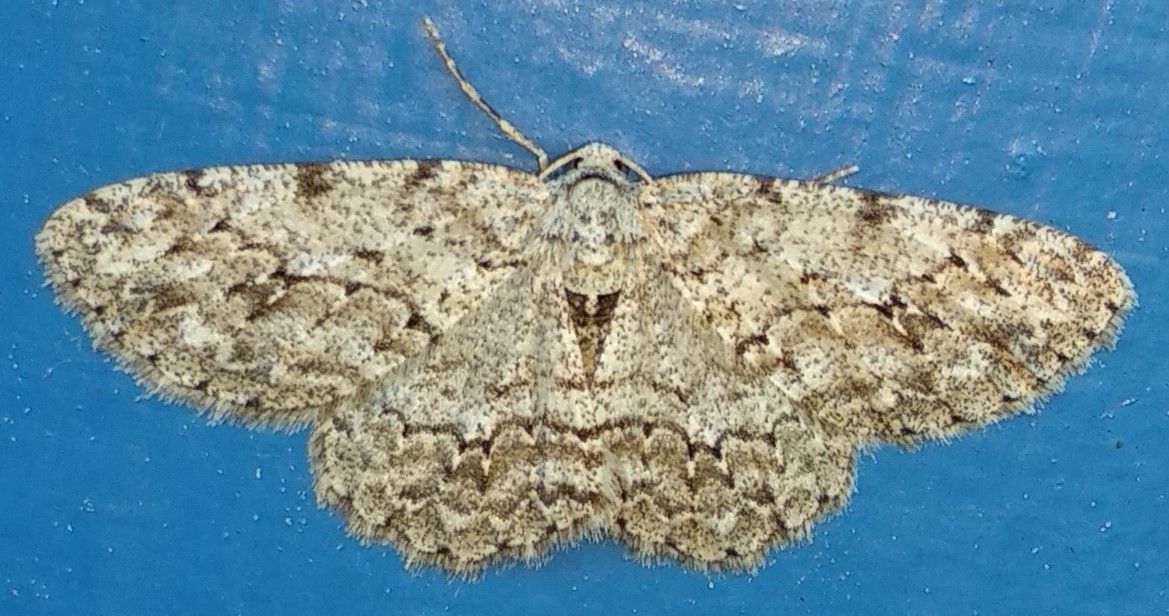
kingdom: Animalia
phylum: Arthropoda
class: Insecta
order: Lepidoptera
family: Geometridae
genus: Ectropis
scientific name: Ectropis crepuscularia
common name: Engrailed
